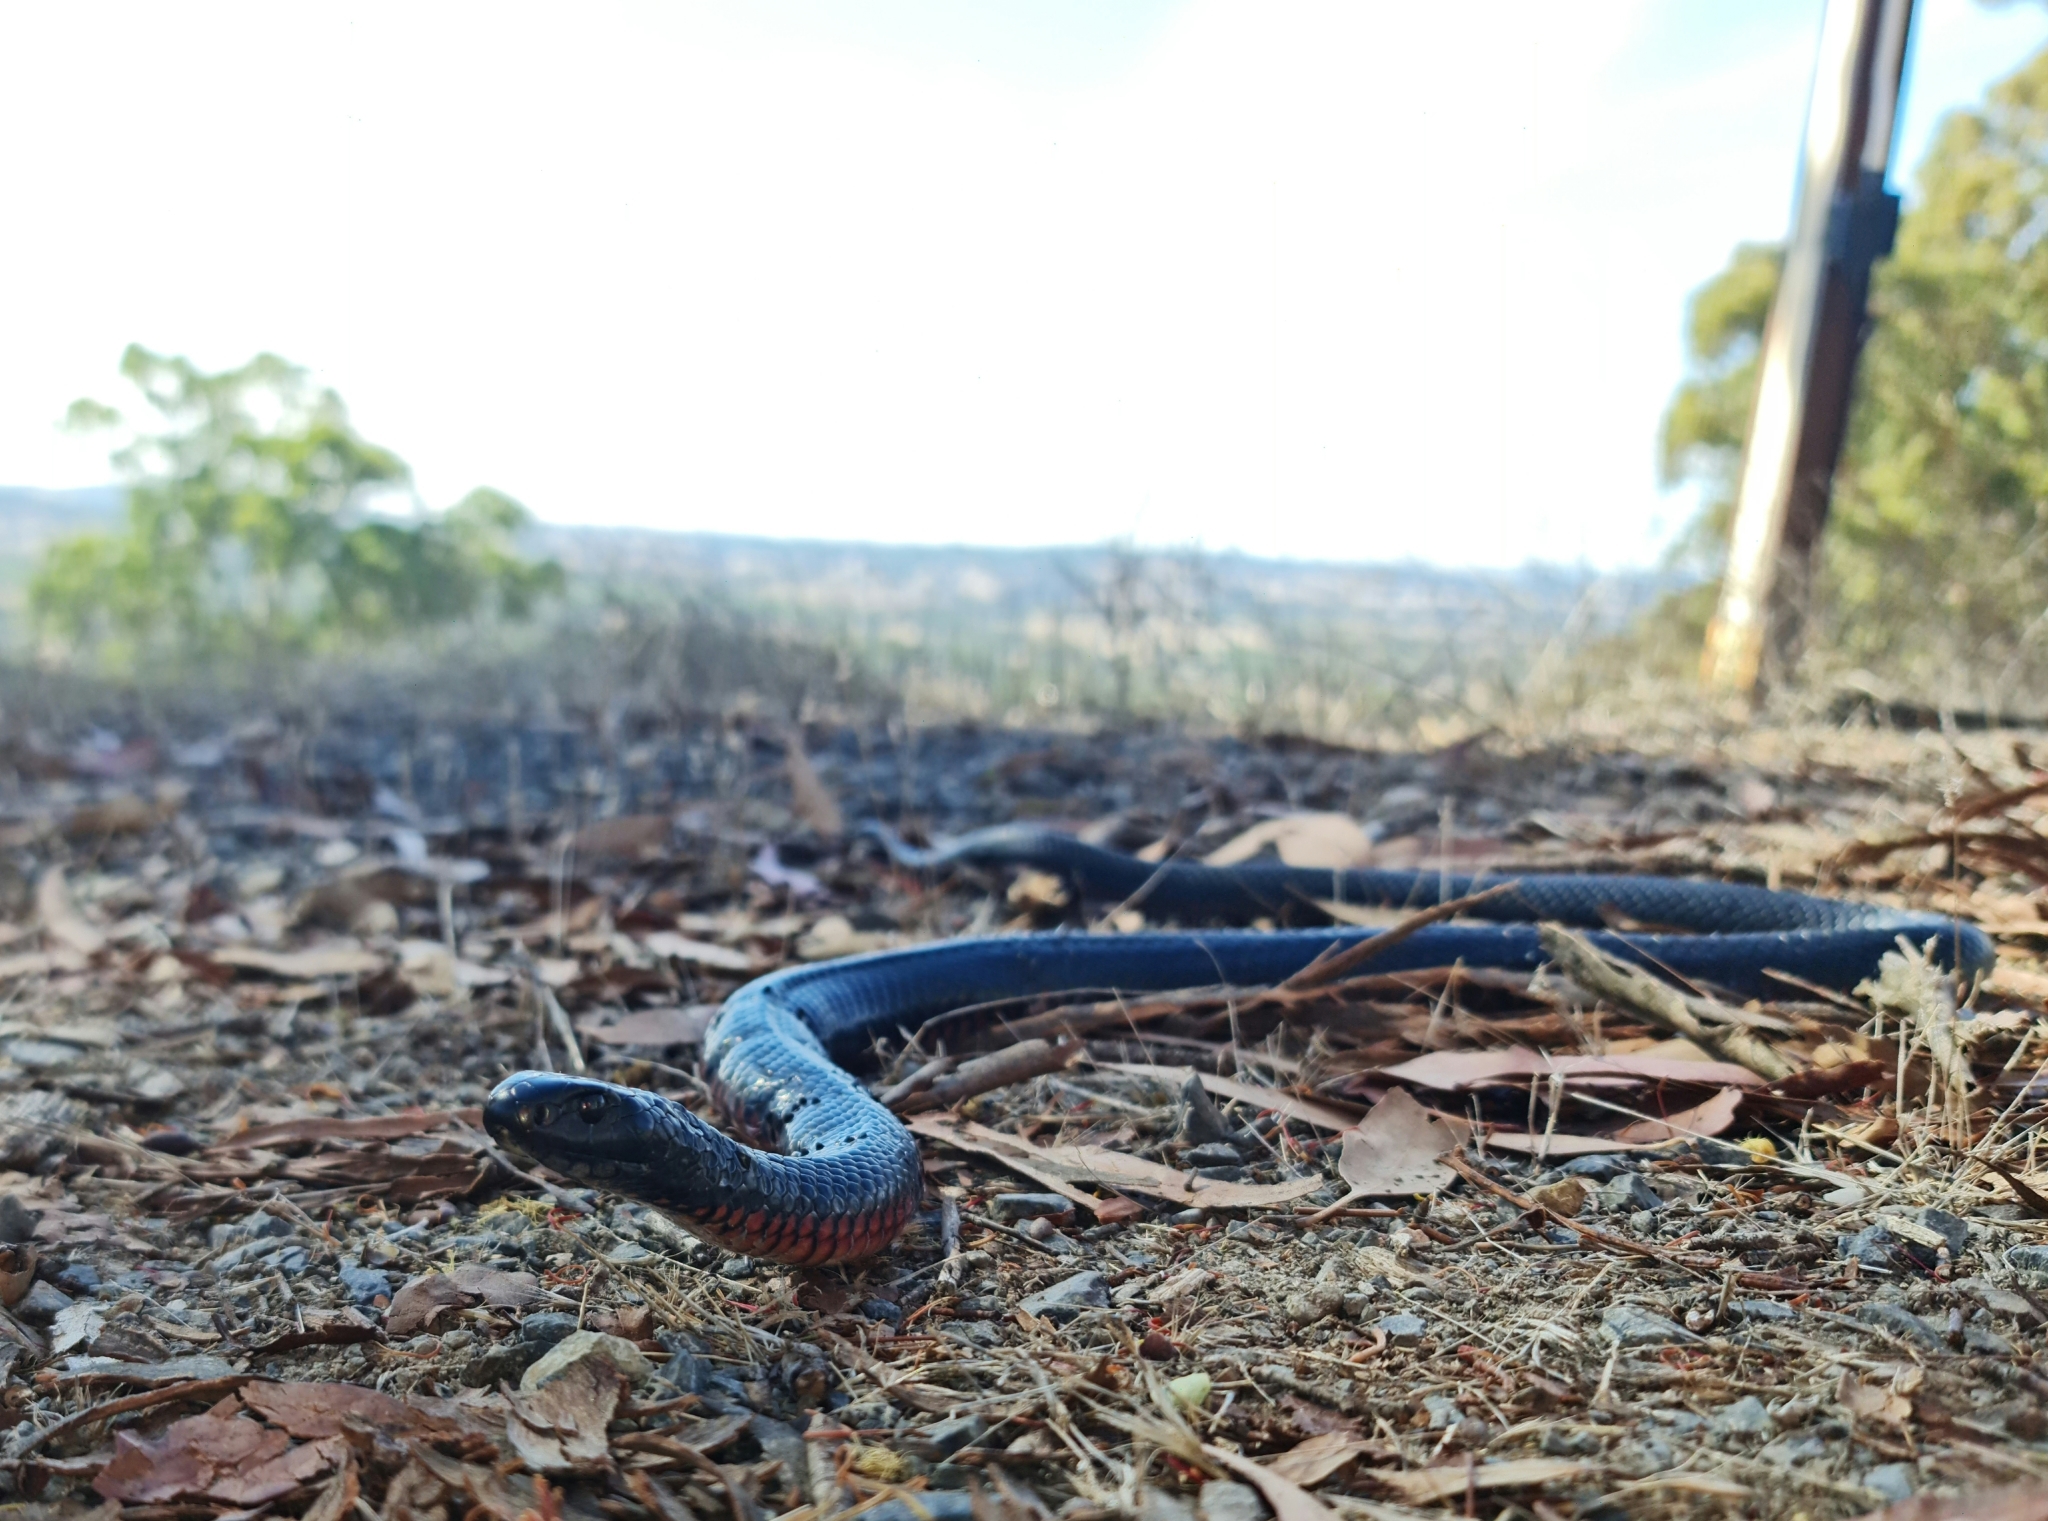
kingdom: Animalia
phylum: Chordata
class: Squamata
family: Elapidae
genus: Pseudechis
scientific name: Pseudechis porphyriacus
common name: Australian black snake
